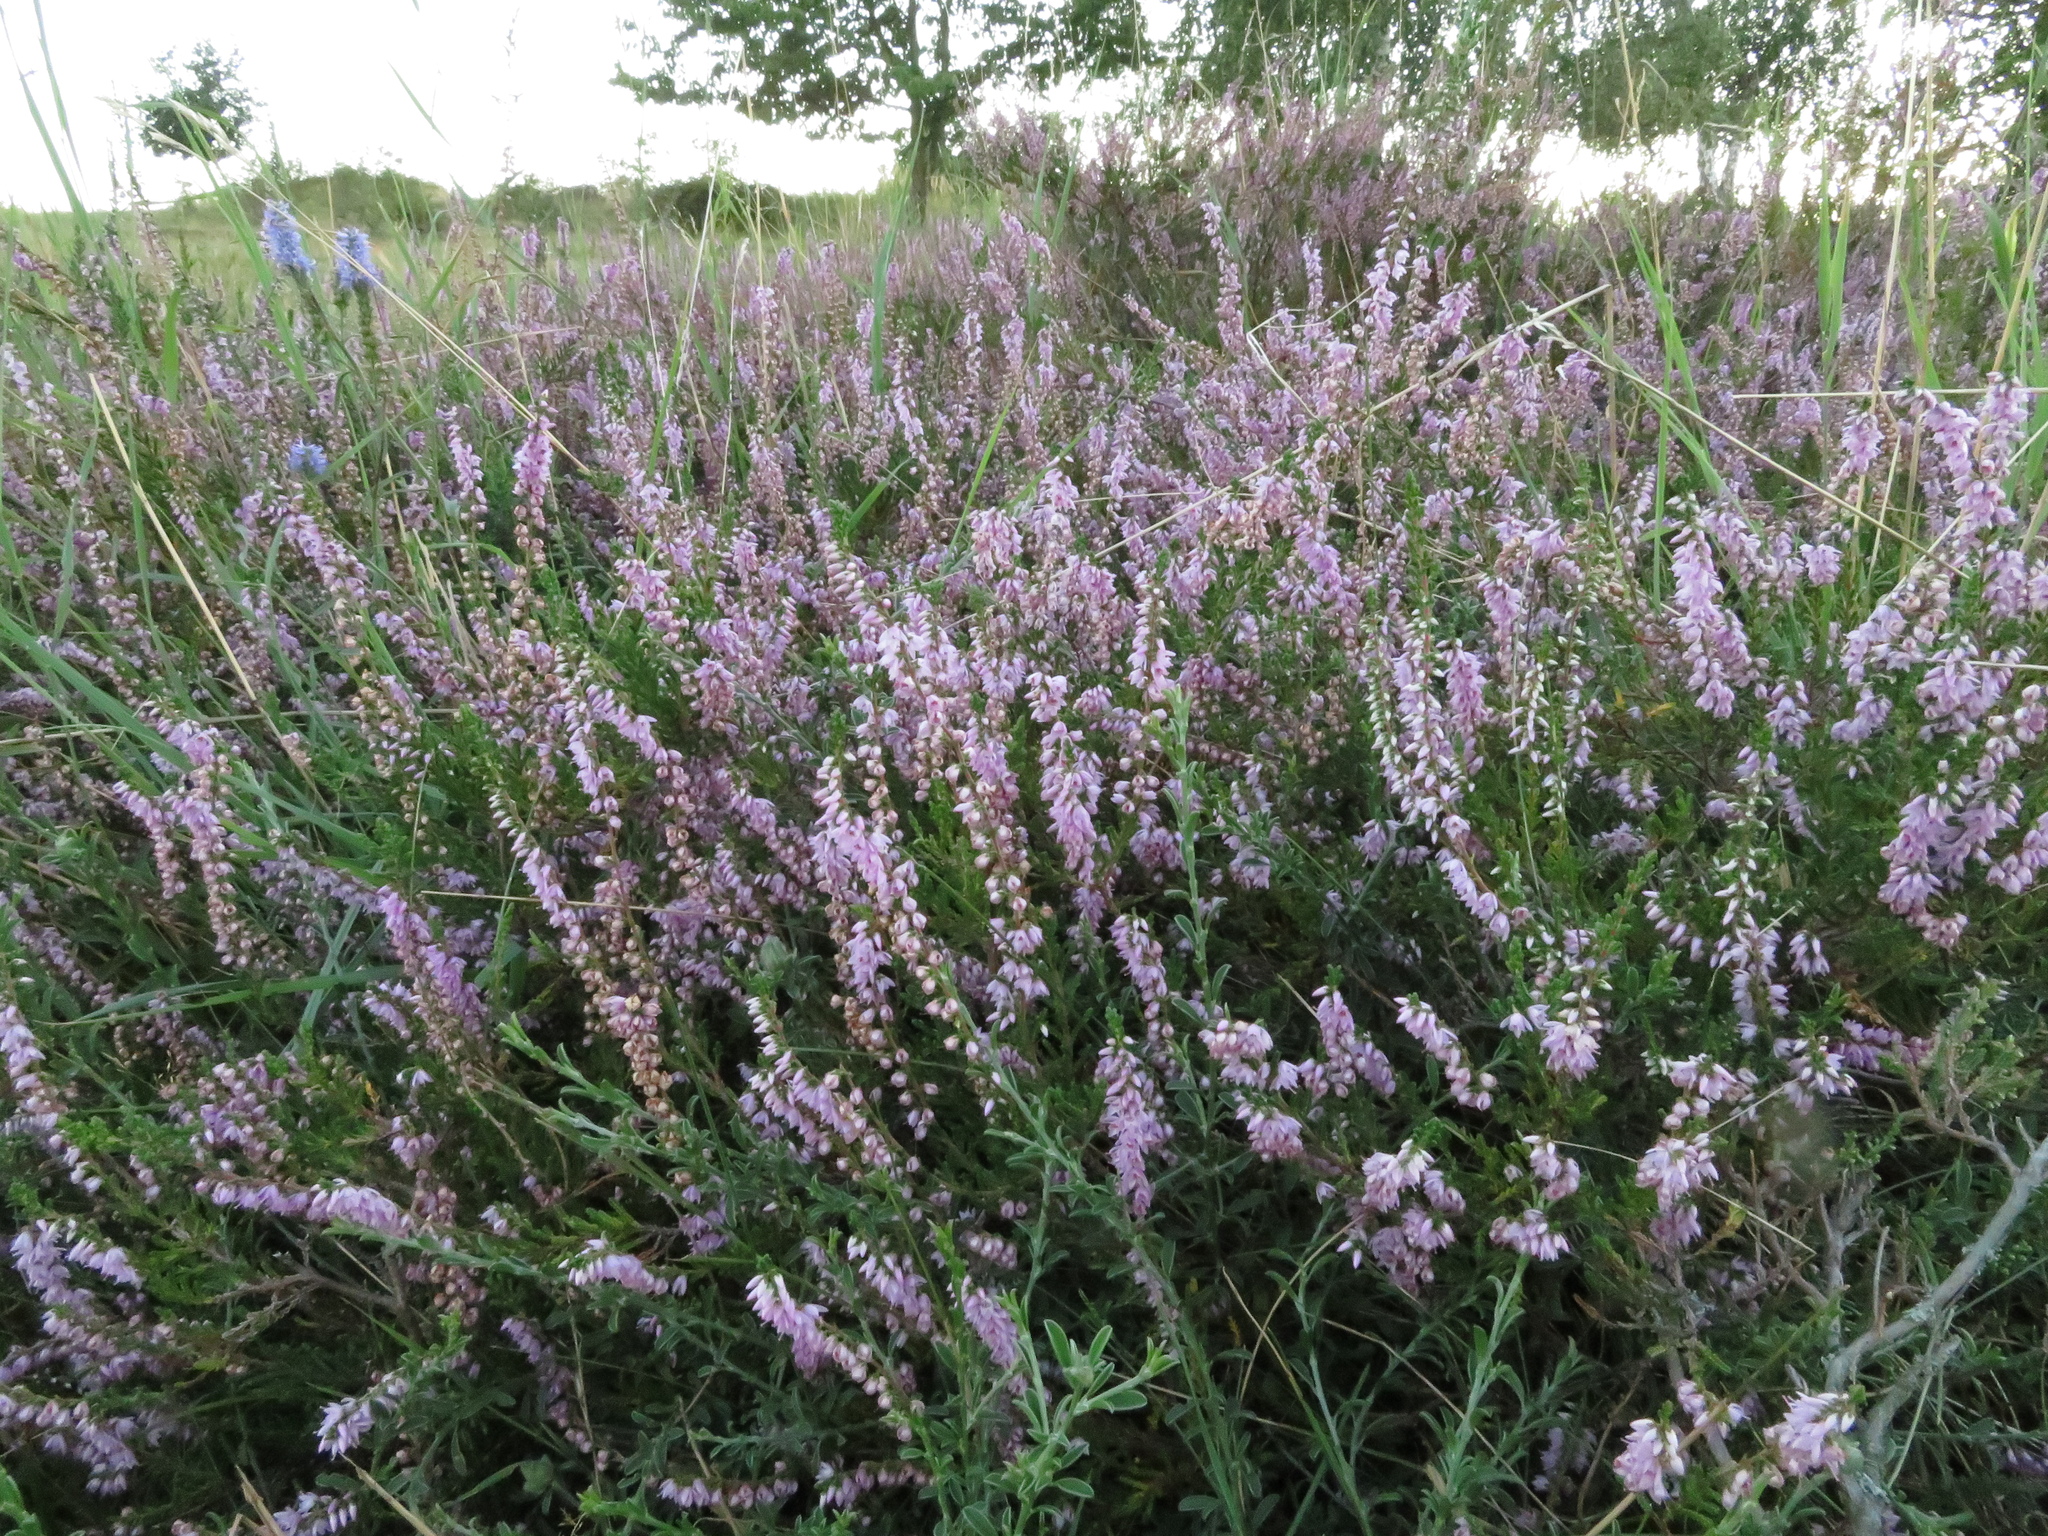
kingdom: Plantae
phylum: Tracheophyta
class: Magnoliopsida
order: Ericales
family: Ericaceae
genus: Calluna
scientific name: Calluna vulgaris
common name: Heather
